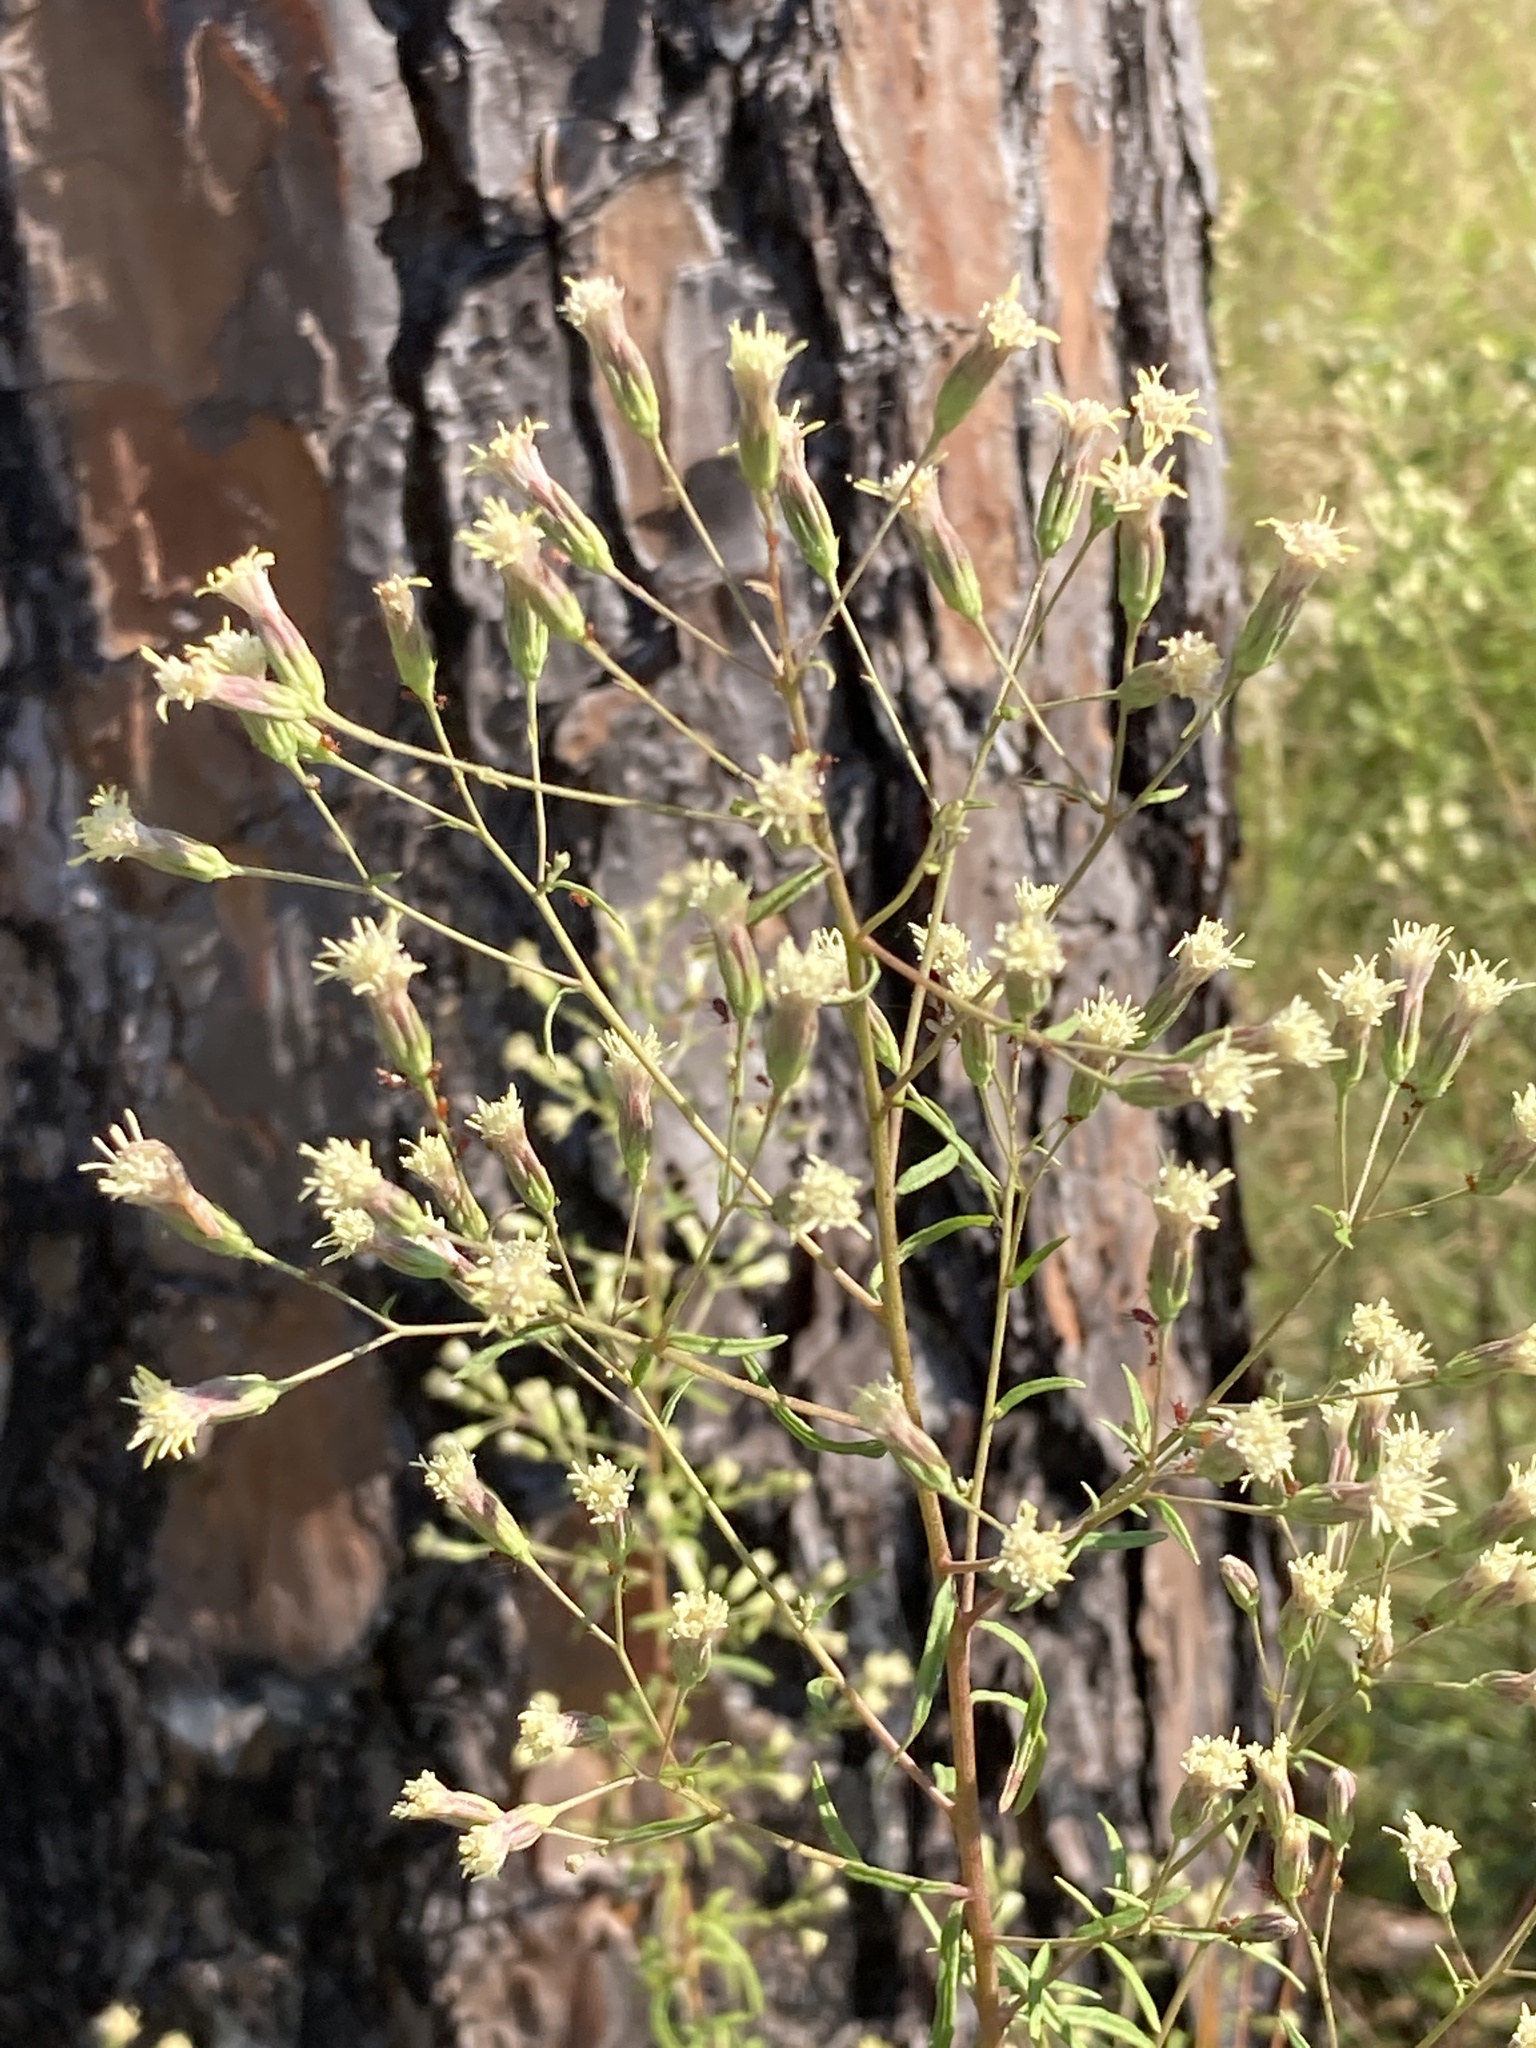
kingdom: Plantae
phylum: Tracheophyta
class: Magnoliopsida
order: Asterales
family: Asteraceae
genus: Brickellia
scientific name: Brickellia eupatorioides
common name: False boneset
